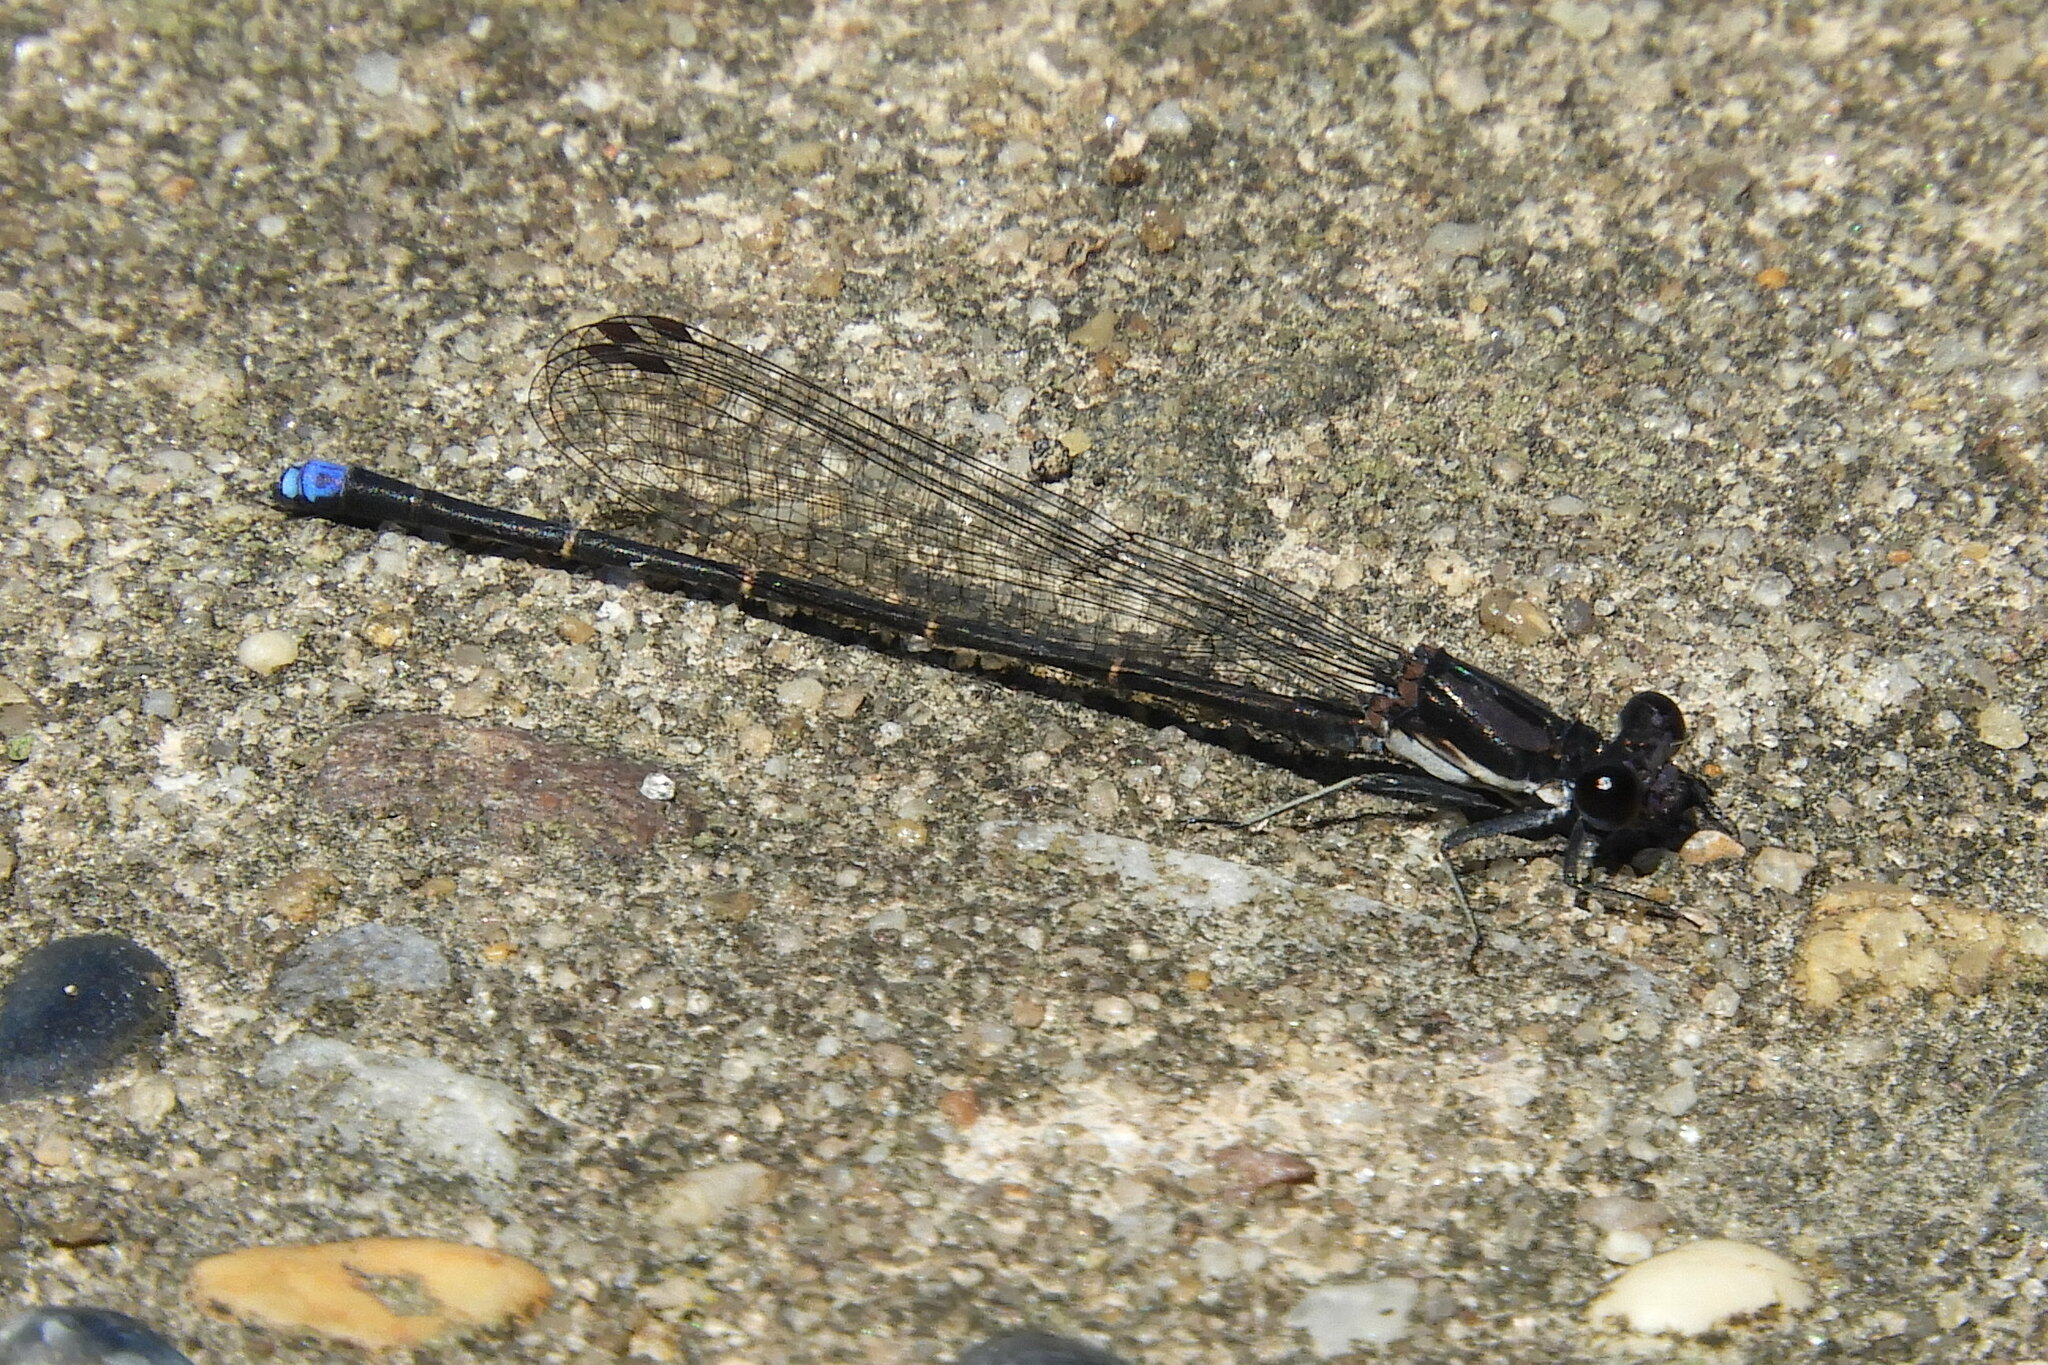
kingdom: Animalia
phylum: Arthropoda
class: Insecta
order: Odonata
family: Coenagrionidae
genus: Argia
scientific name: Argia tibialis
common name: Blue-tipped dancer
